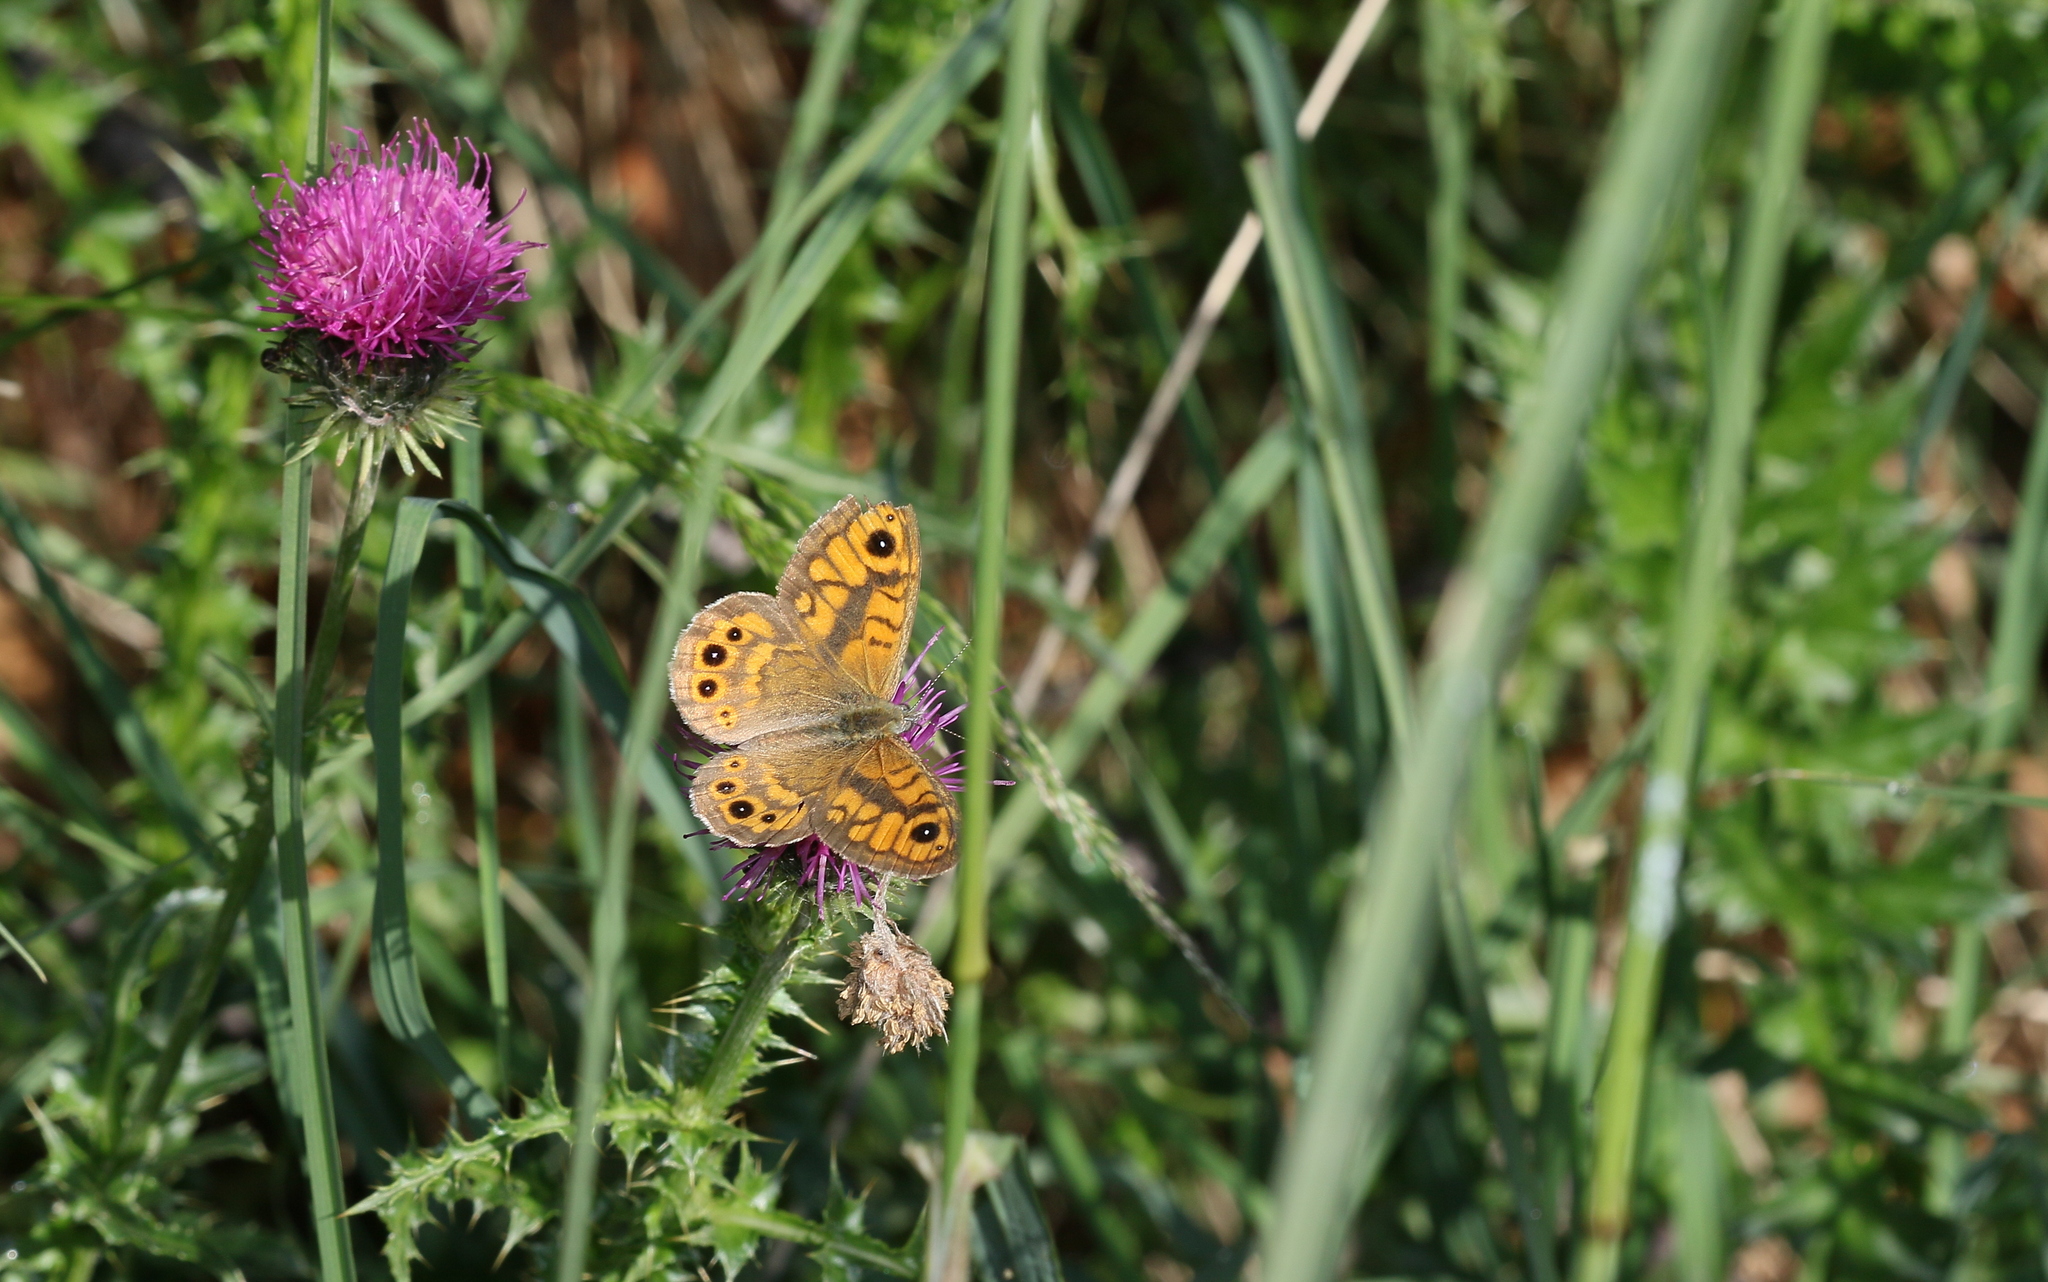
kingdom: Animalia
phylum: Arthropoda
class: Insecta
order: Lepidoptera
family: Nymphalidae
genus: Pararge
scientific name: Pararge Lasiommata megera
